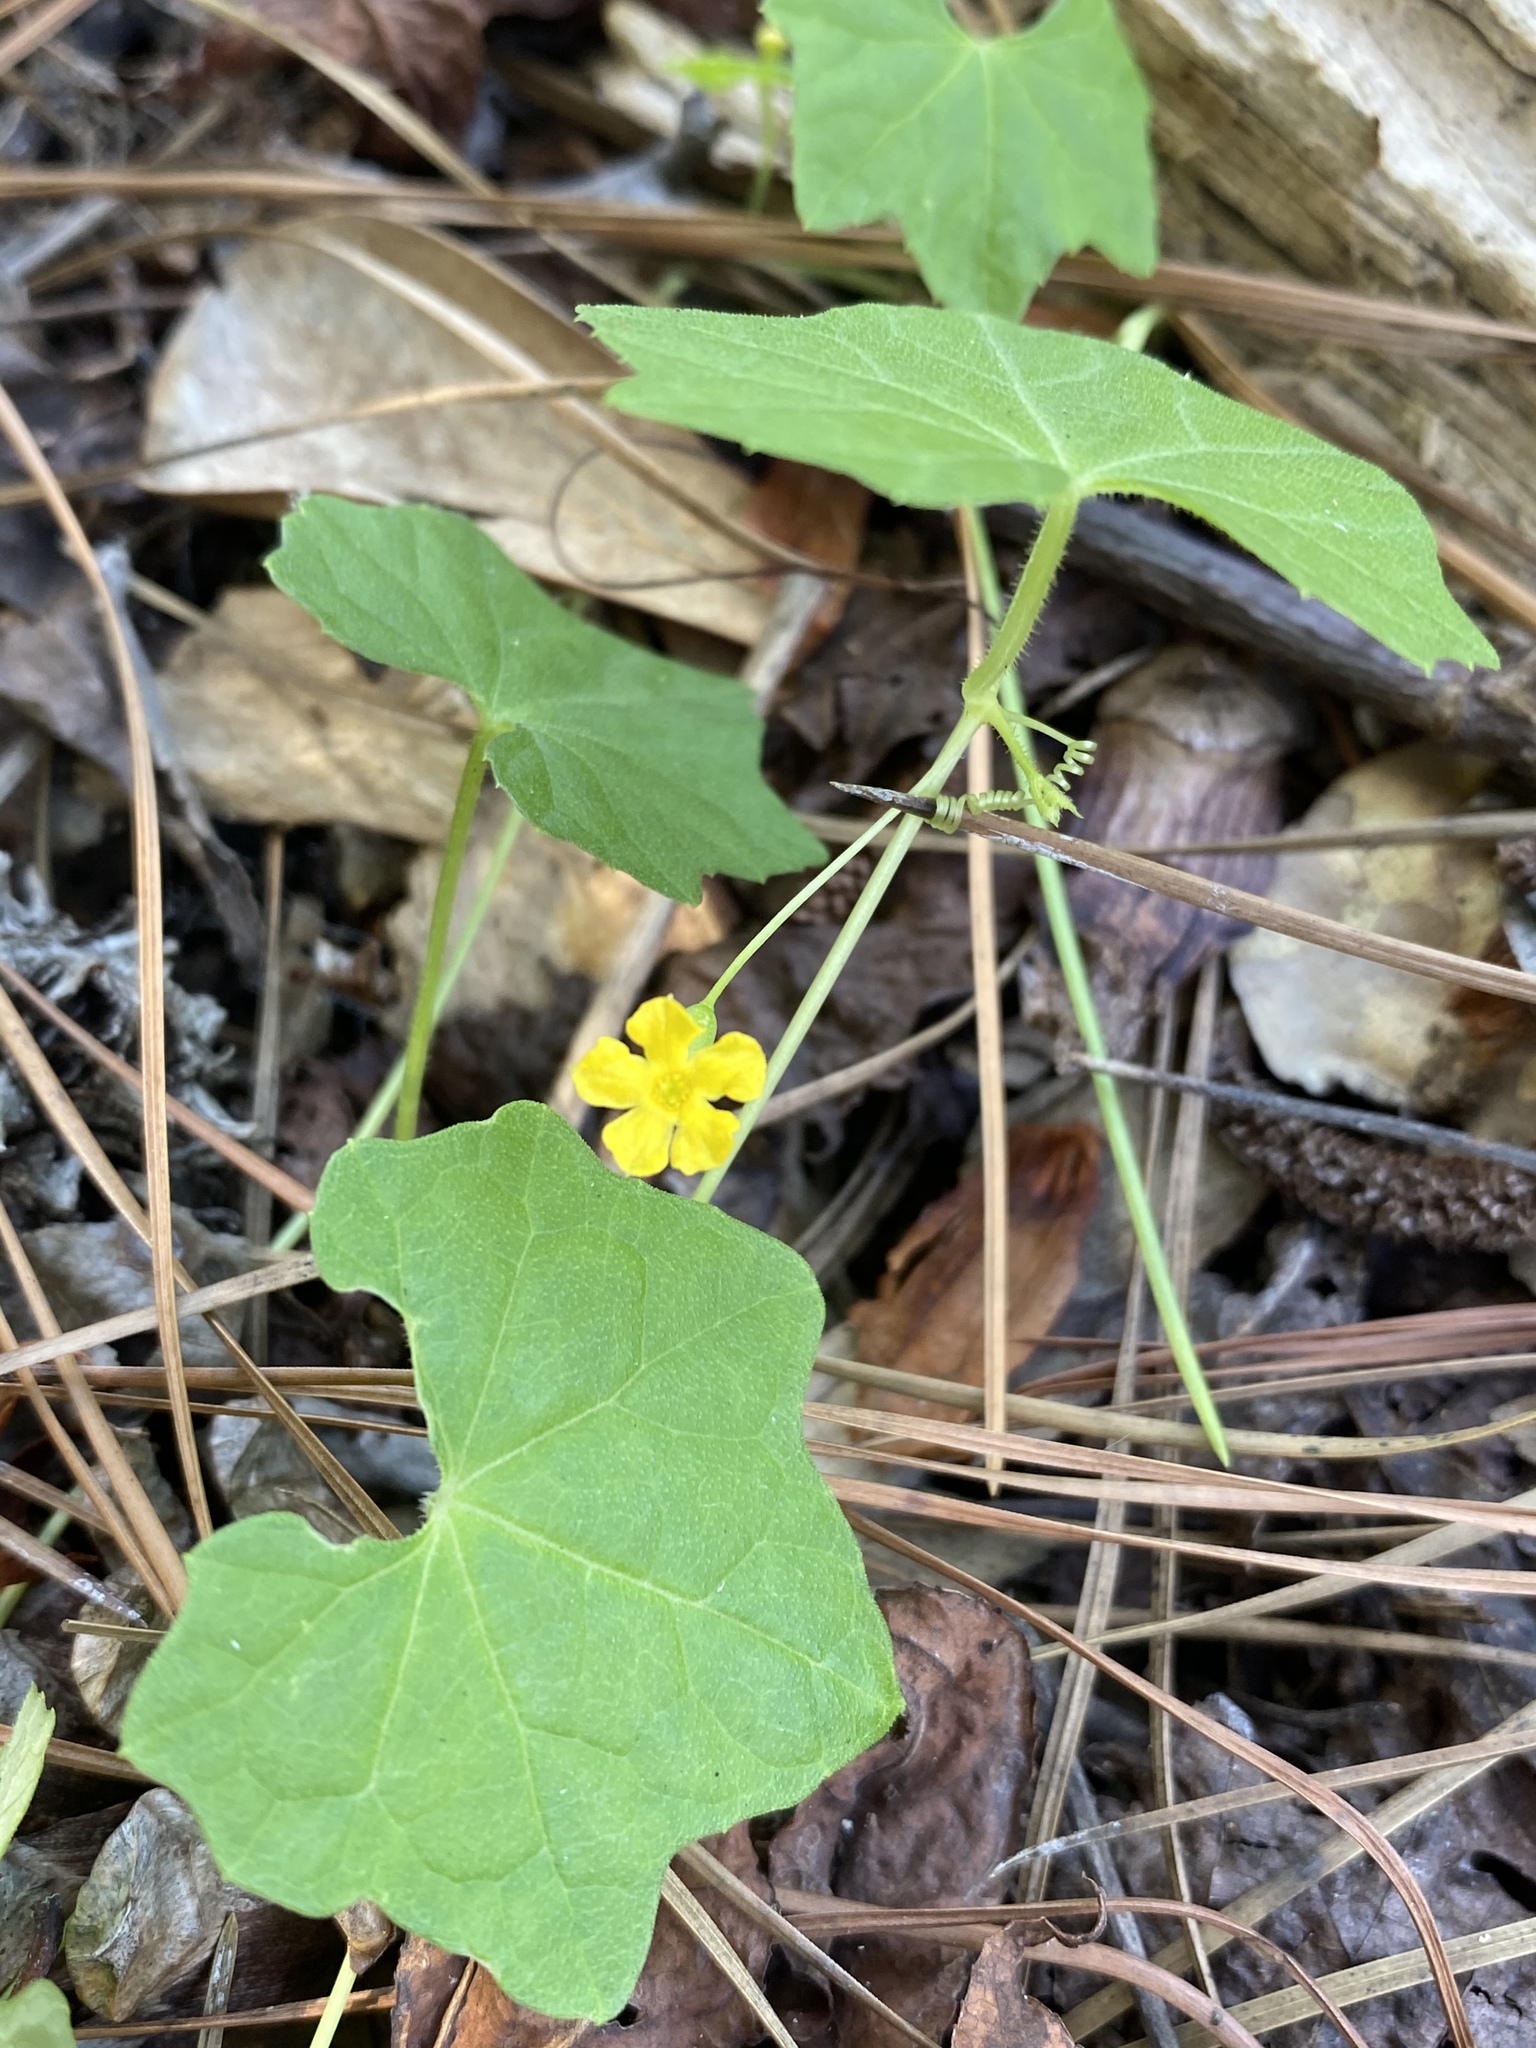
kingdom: Plantae
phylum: Tracheophyta
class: Magnoliopsida
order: Cucurbitales
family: Cucurbitaceae
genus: Melothria
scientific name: Melothria pendula
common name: Creeping-cucumber
